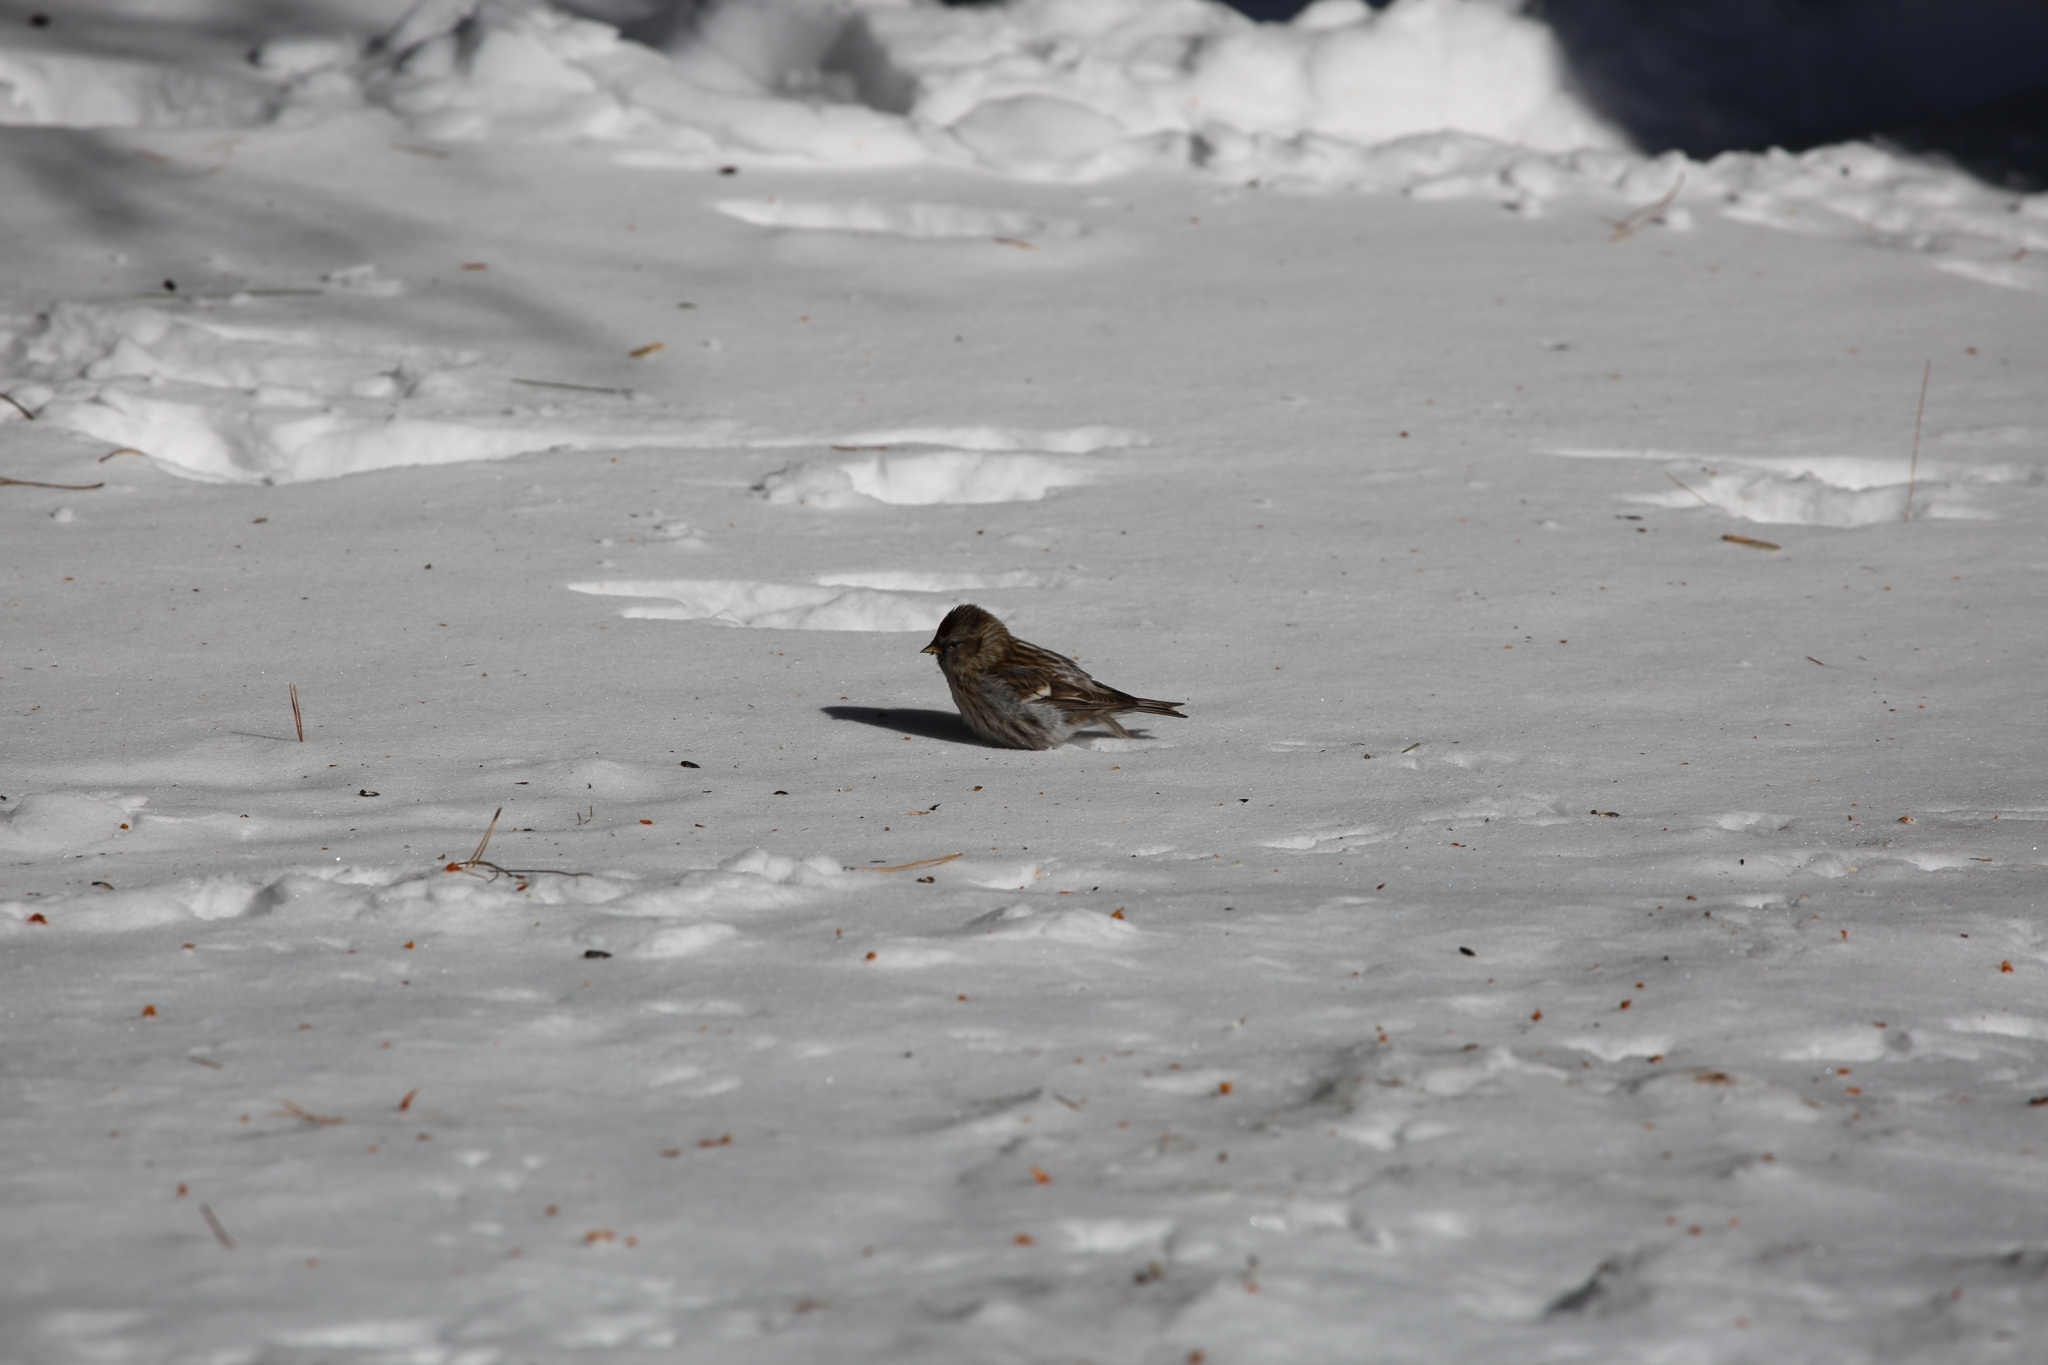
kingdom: Animalia
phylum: Chordata
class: Aves
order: Passeriformes
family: Fringillidae
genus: Acanthis
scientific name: Acanthis flammea
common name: Common redpoll
